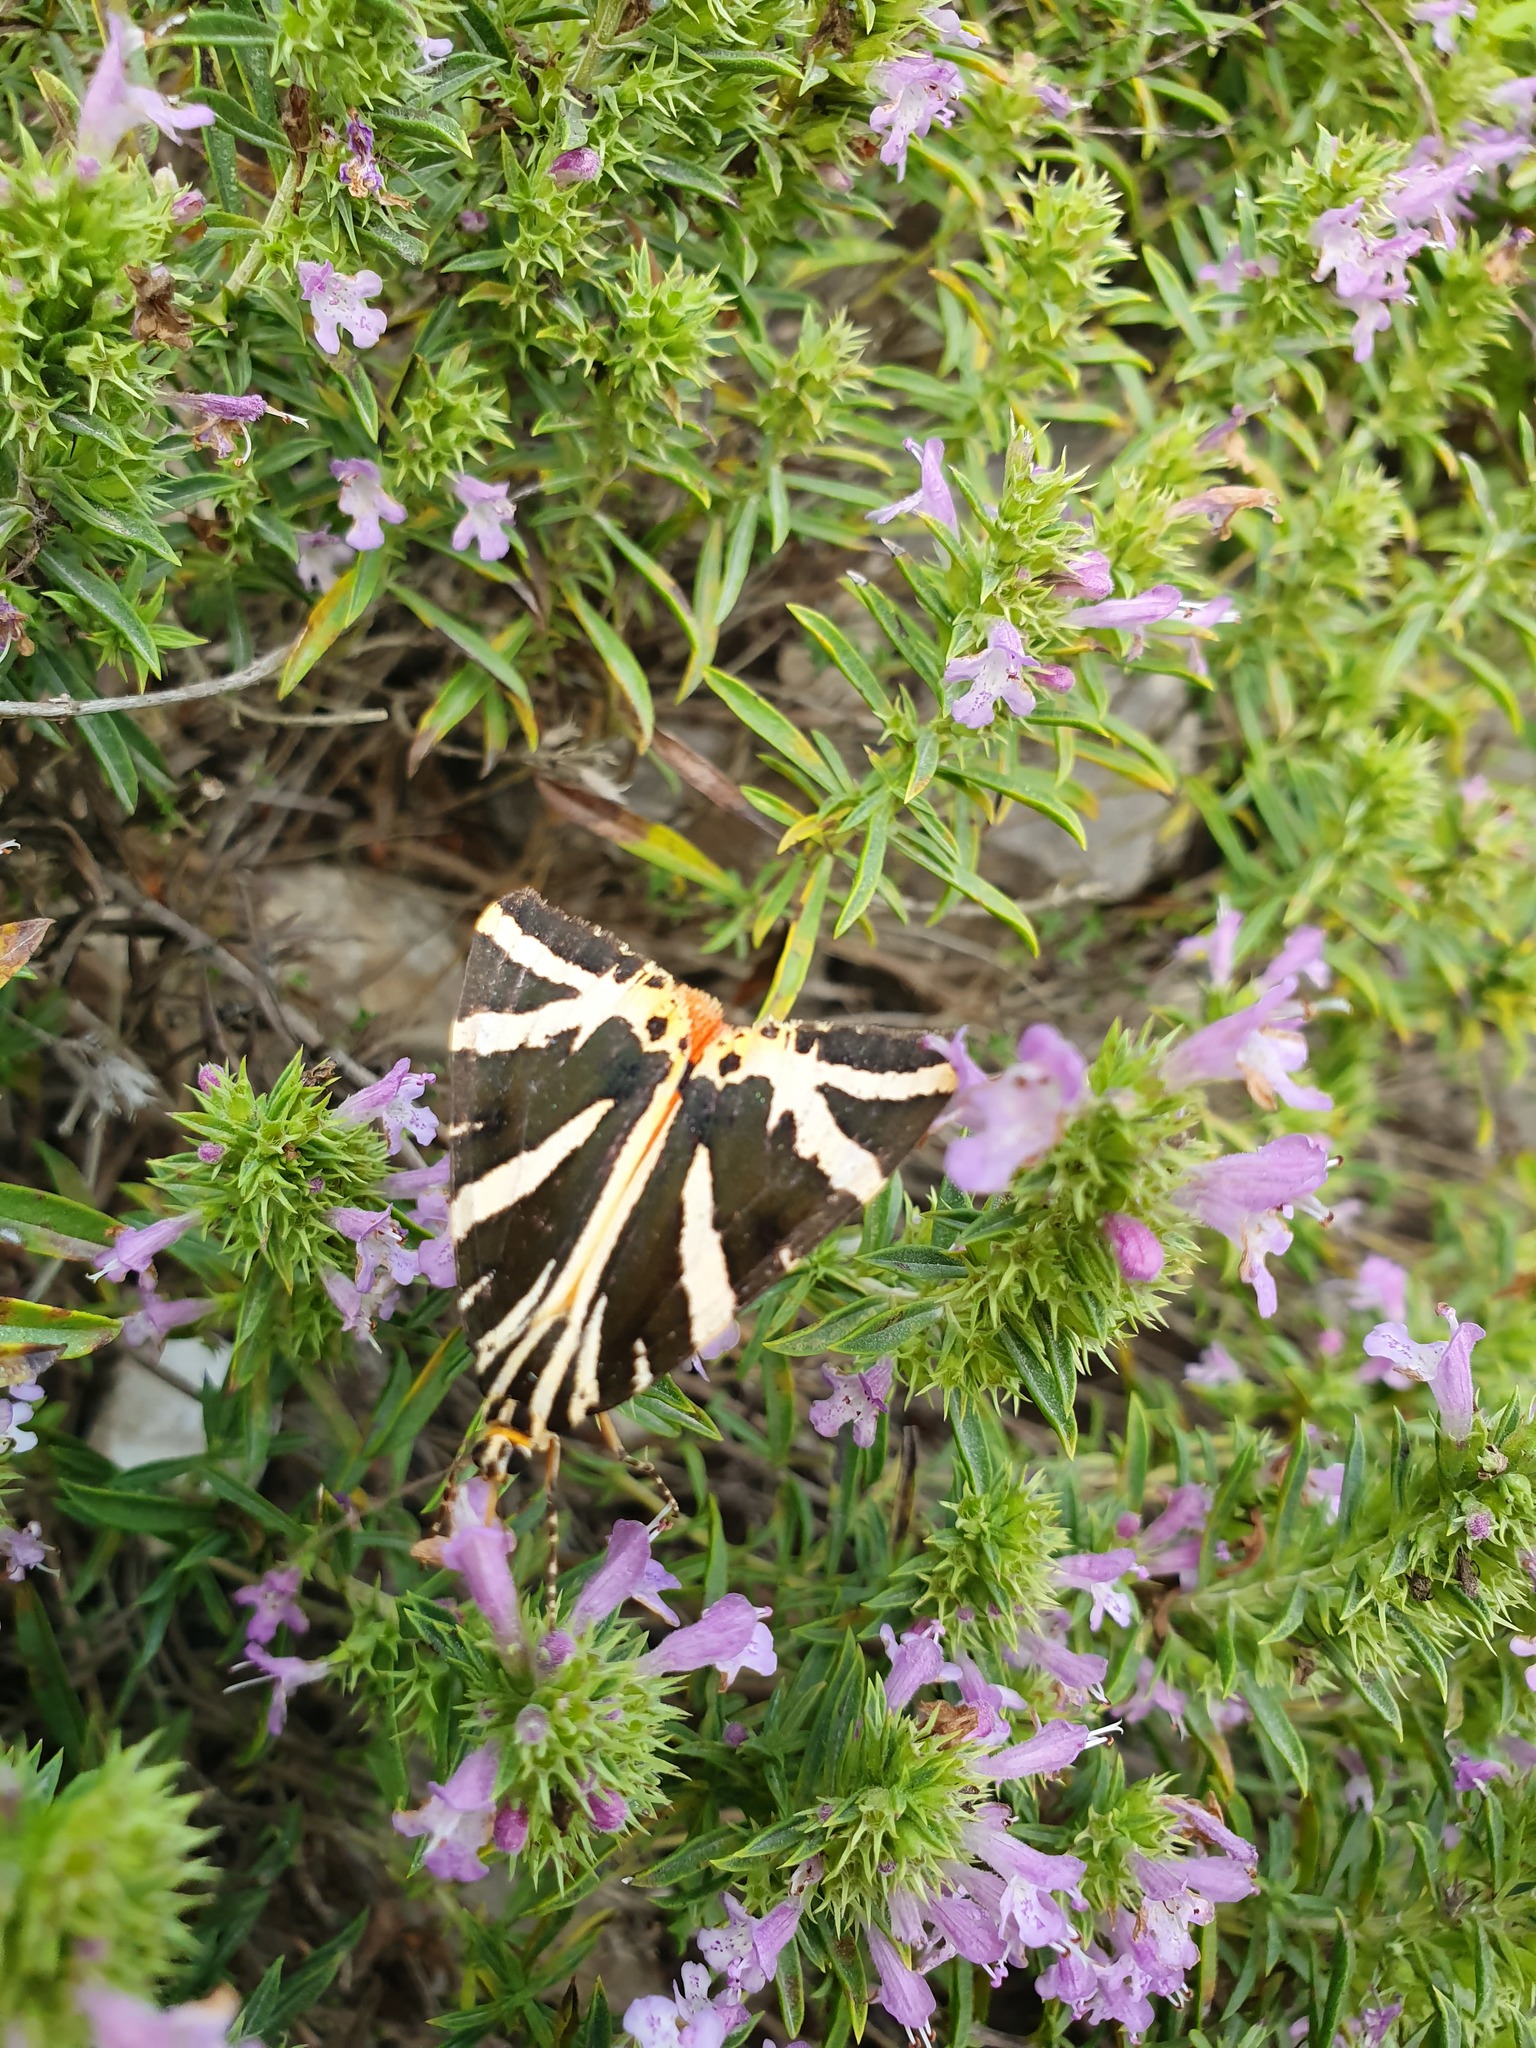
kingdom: Plantae
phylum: Tracheophyta
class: Magnoliopsida
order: Lamiales
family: Lamiaceae
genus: Satureja
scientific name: Satureja subspicata
